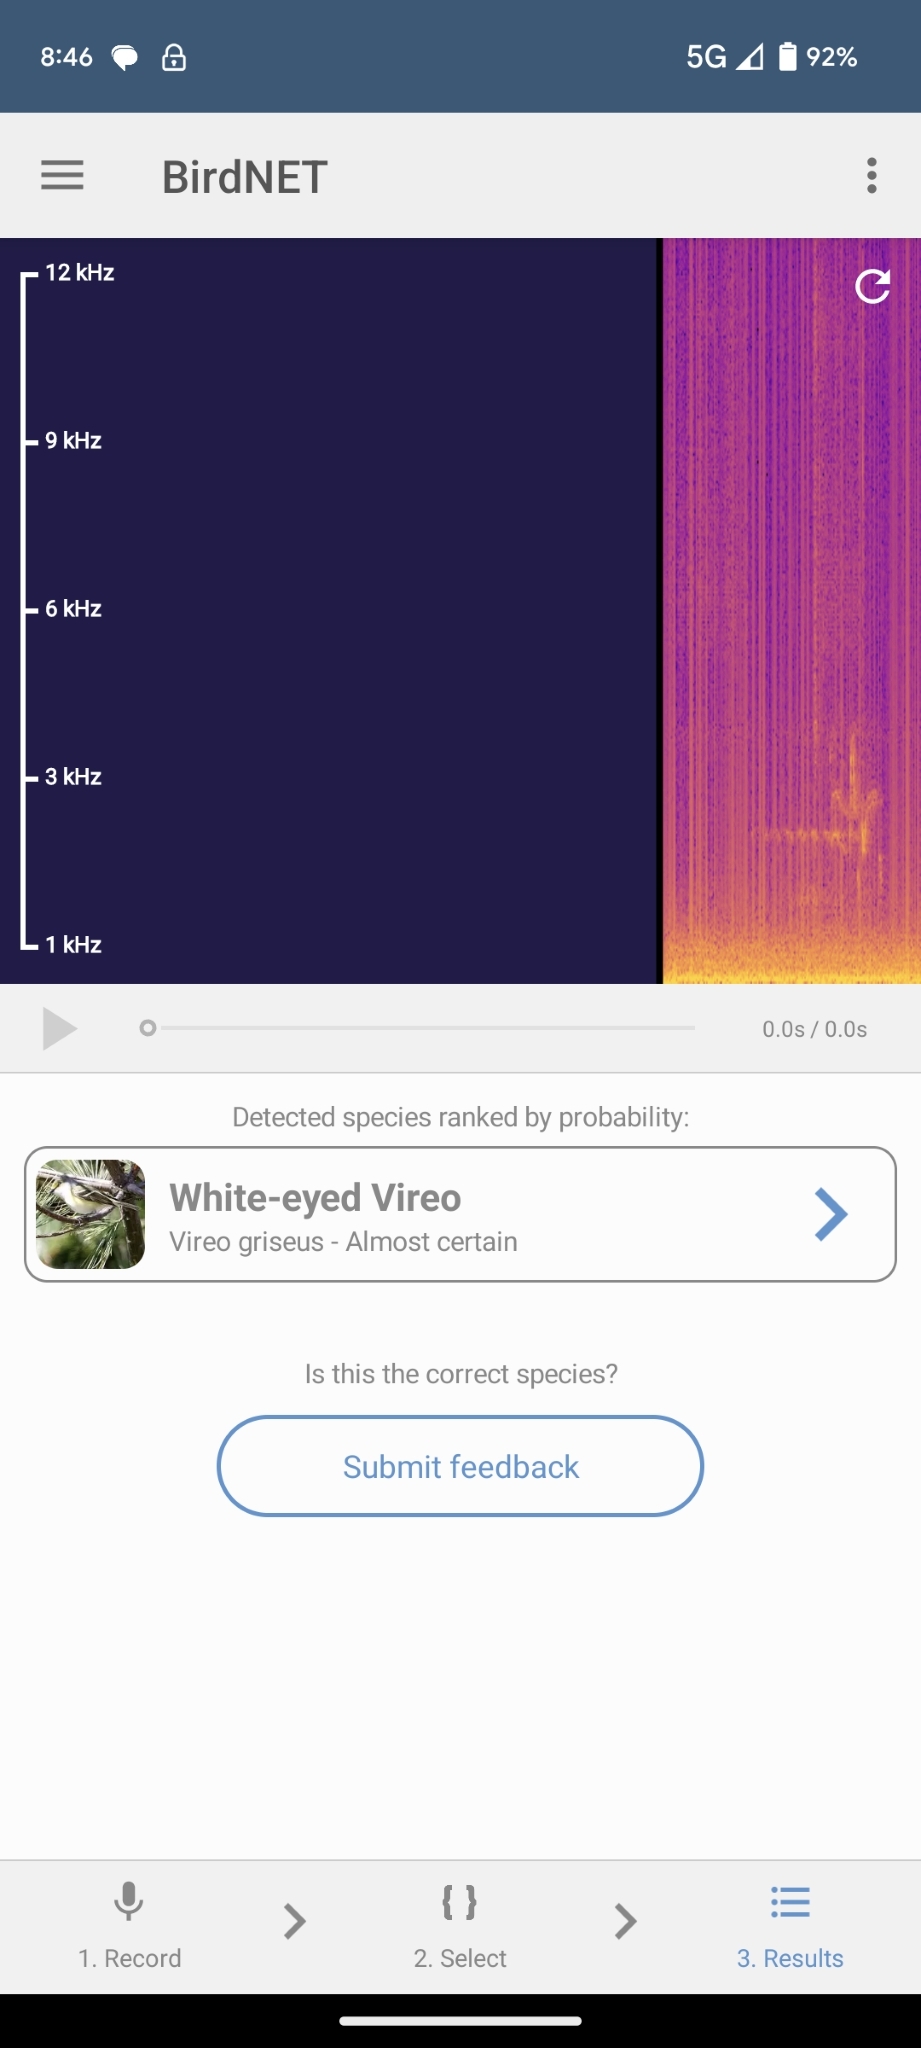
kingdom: Animalia
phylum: Chordata
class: Aves
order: Passeriformes
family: Vireonidae
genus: Vireo
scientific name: Vireo griseus
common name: White-eyed vireo
